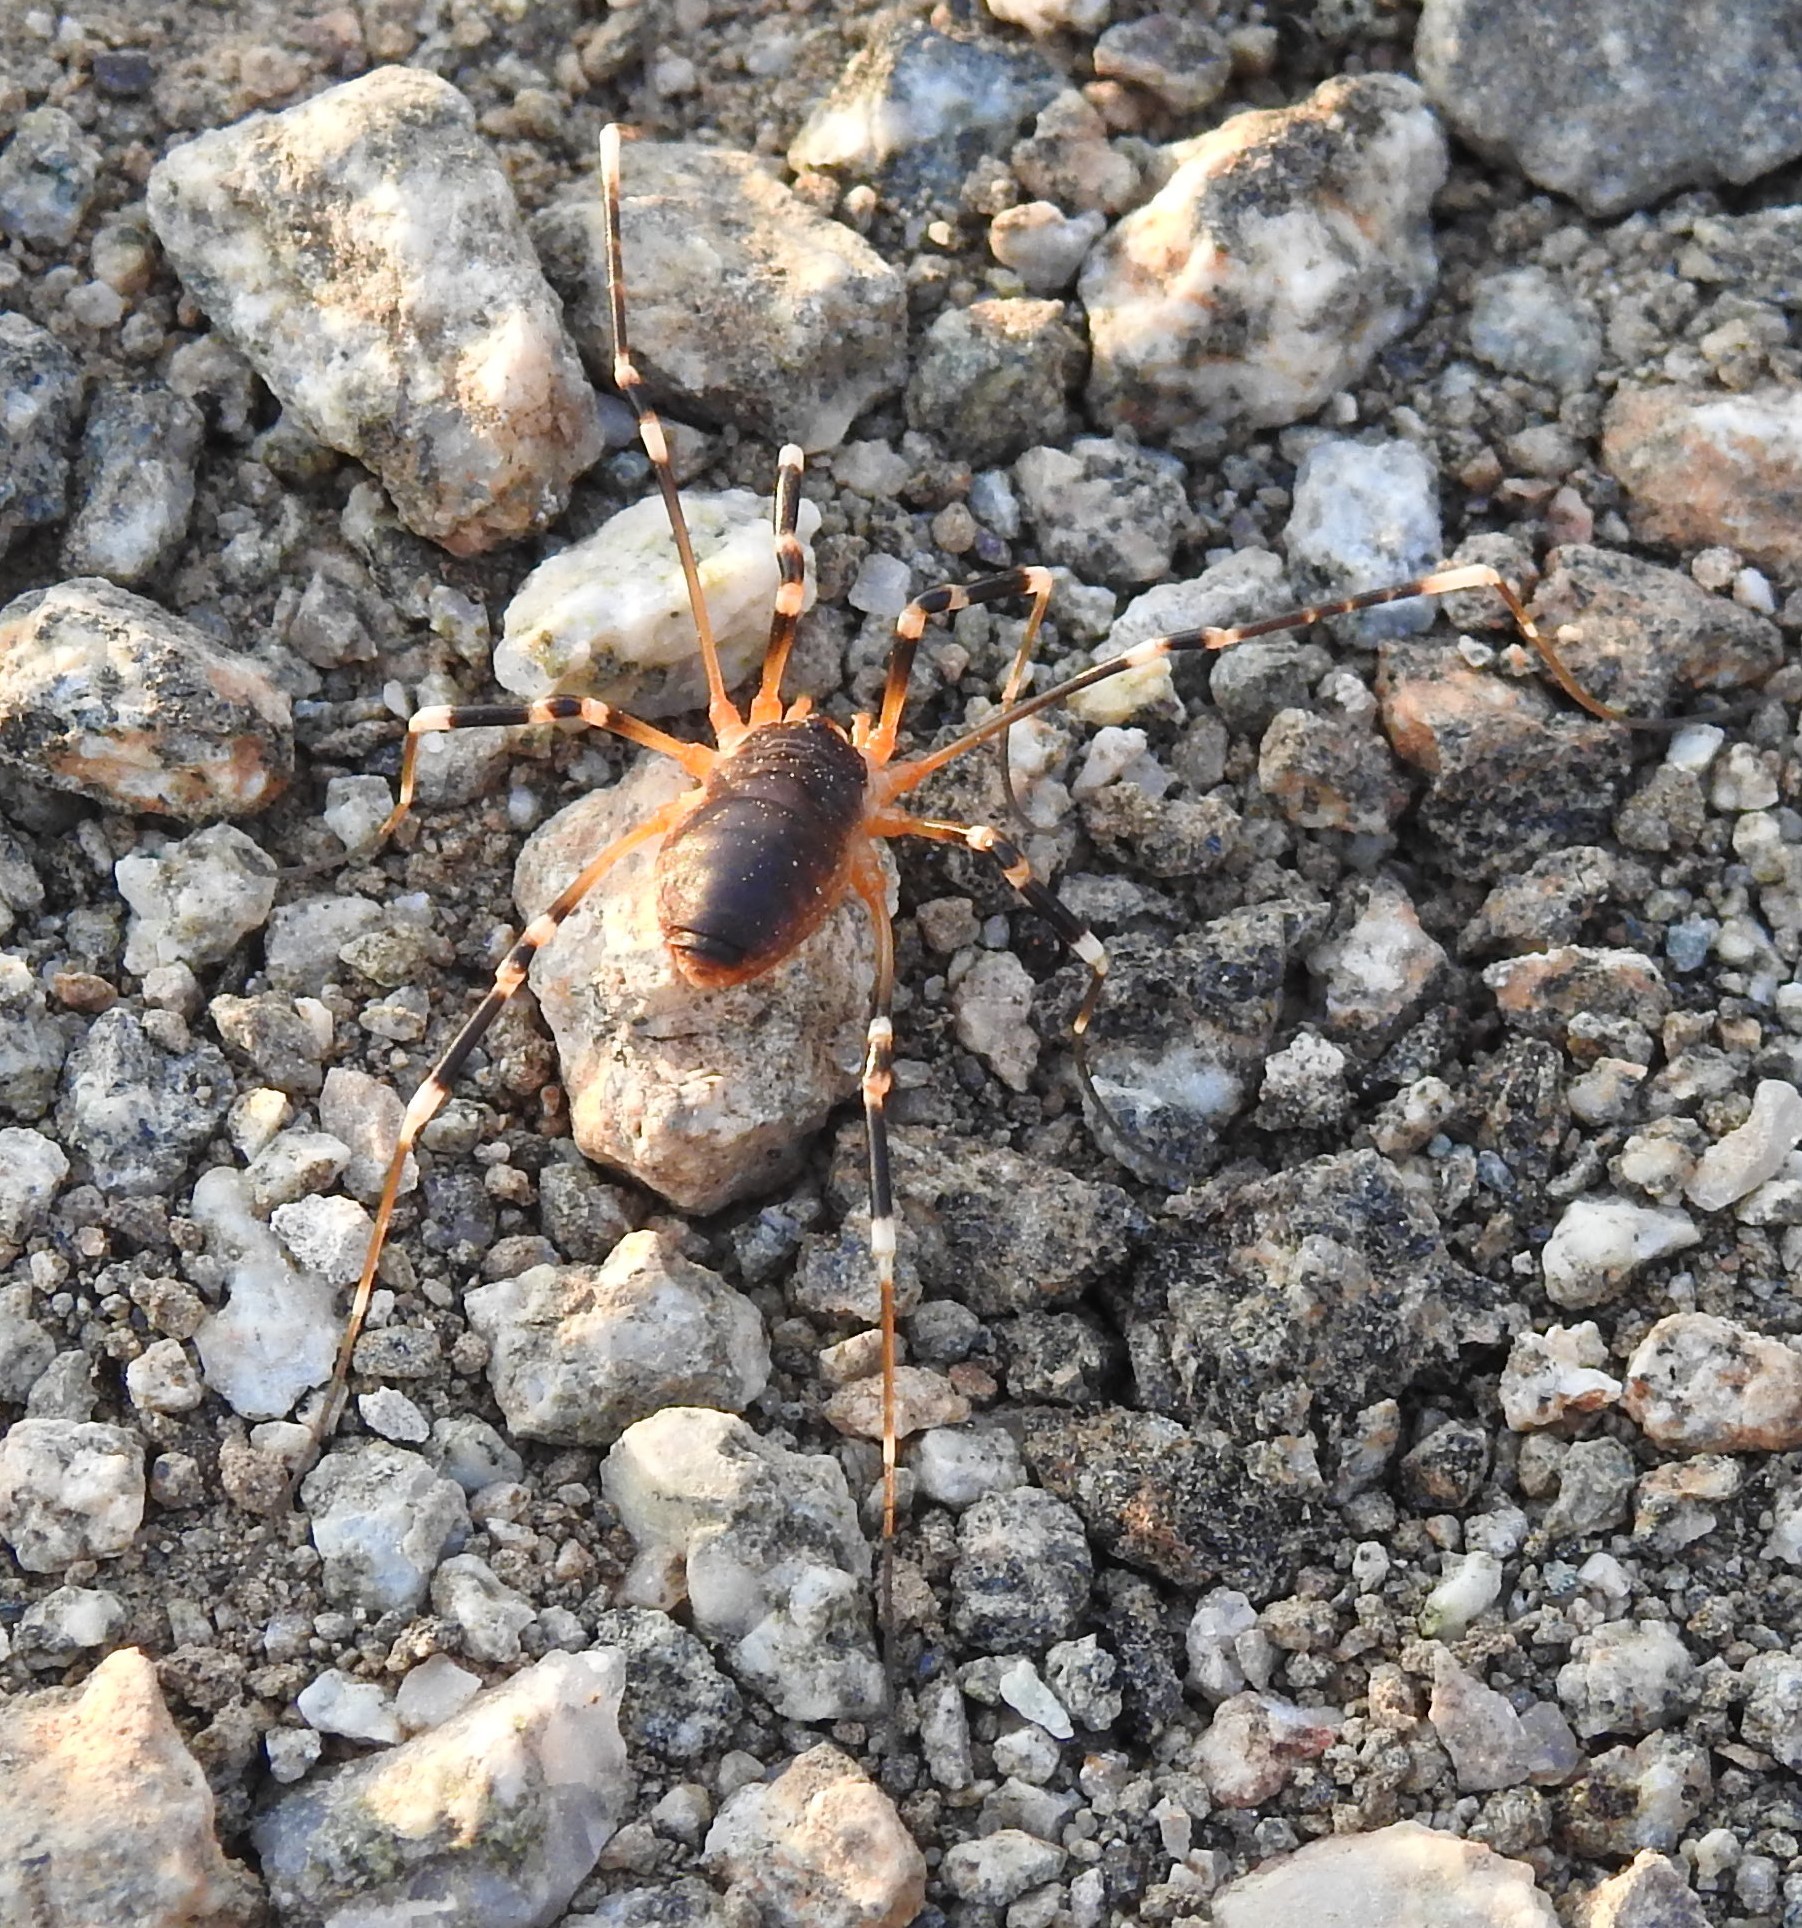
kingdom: Animalia
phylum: Arthropoda
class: Arachnida
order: Opiliones
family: Globipedidae
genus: Eurybunus
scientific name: Eurybunus
